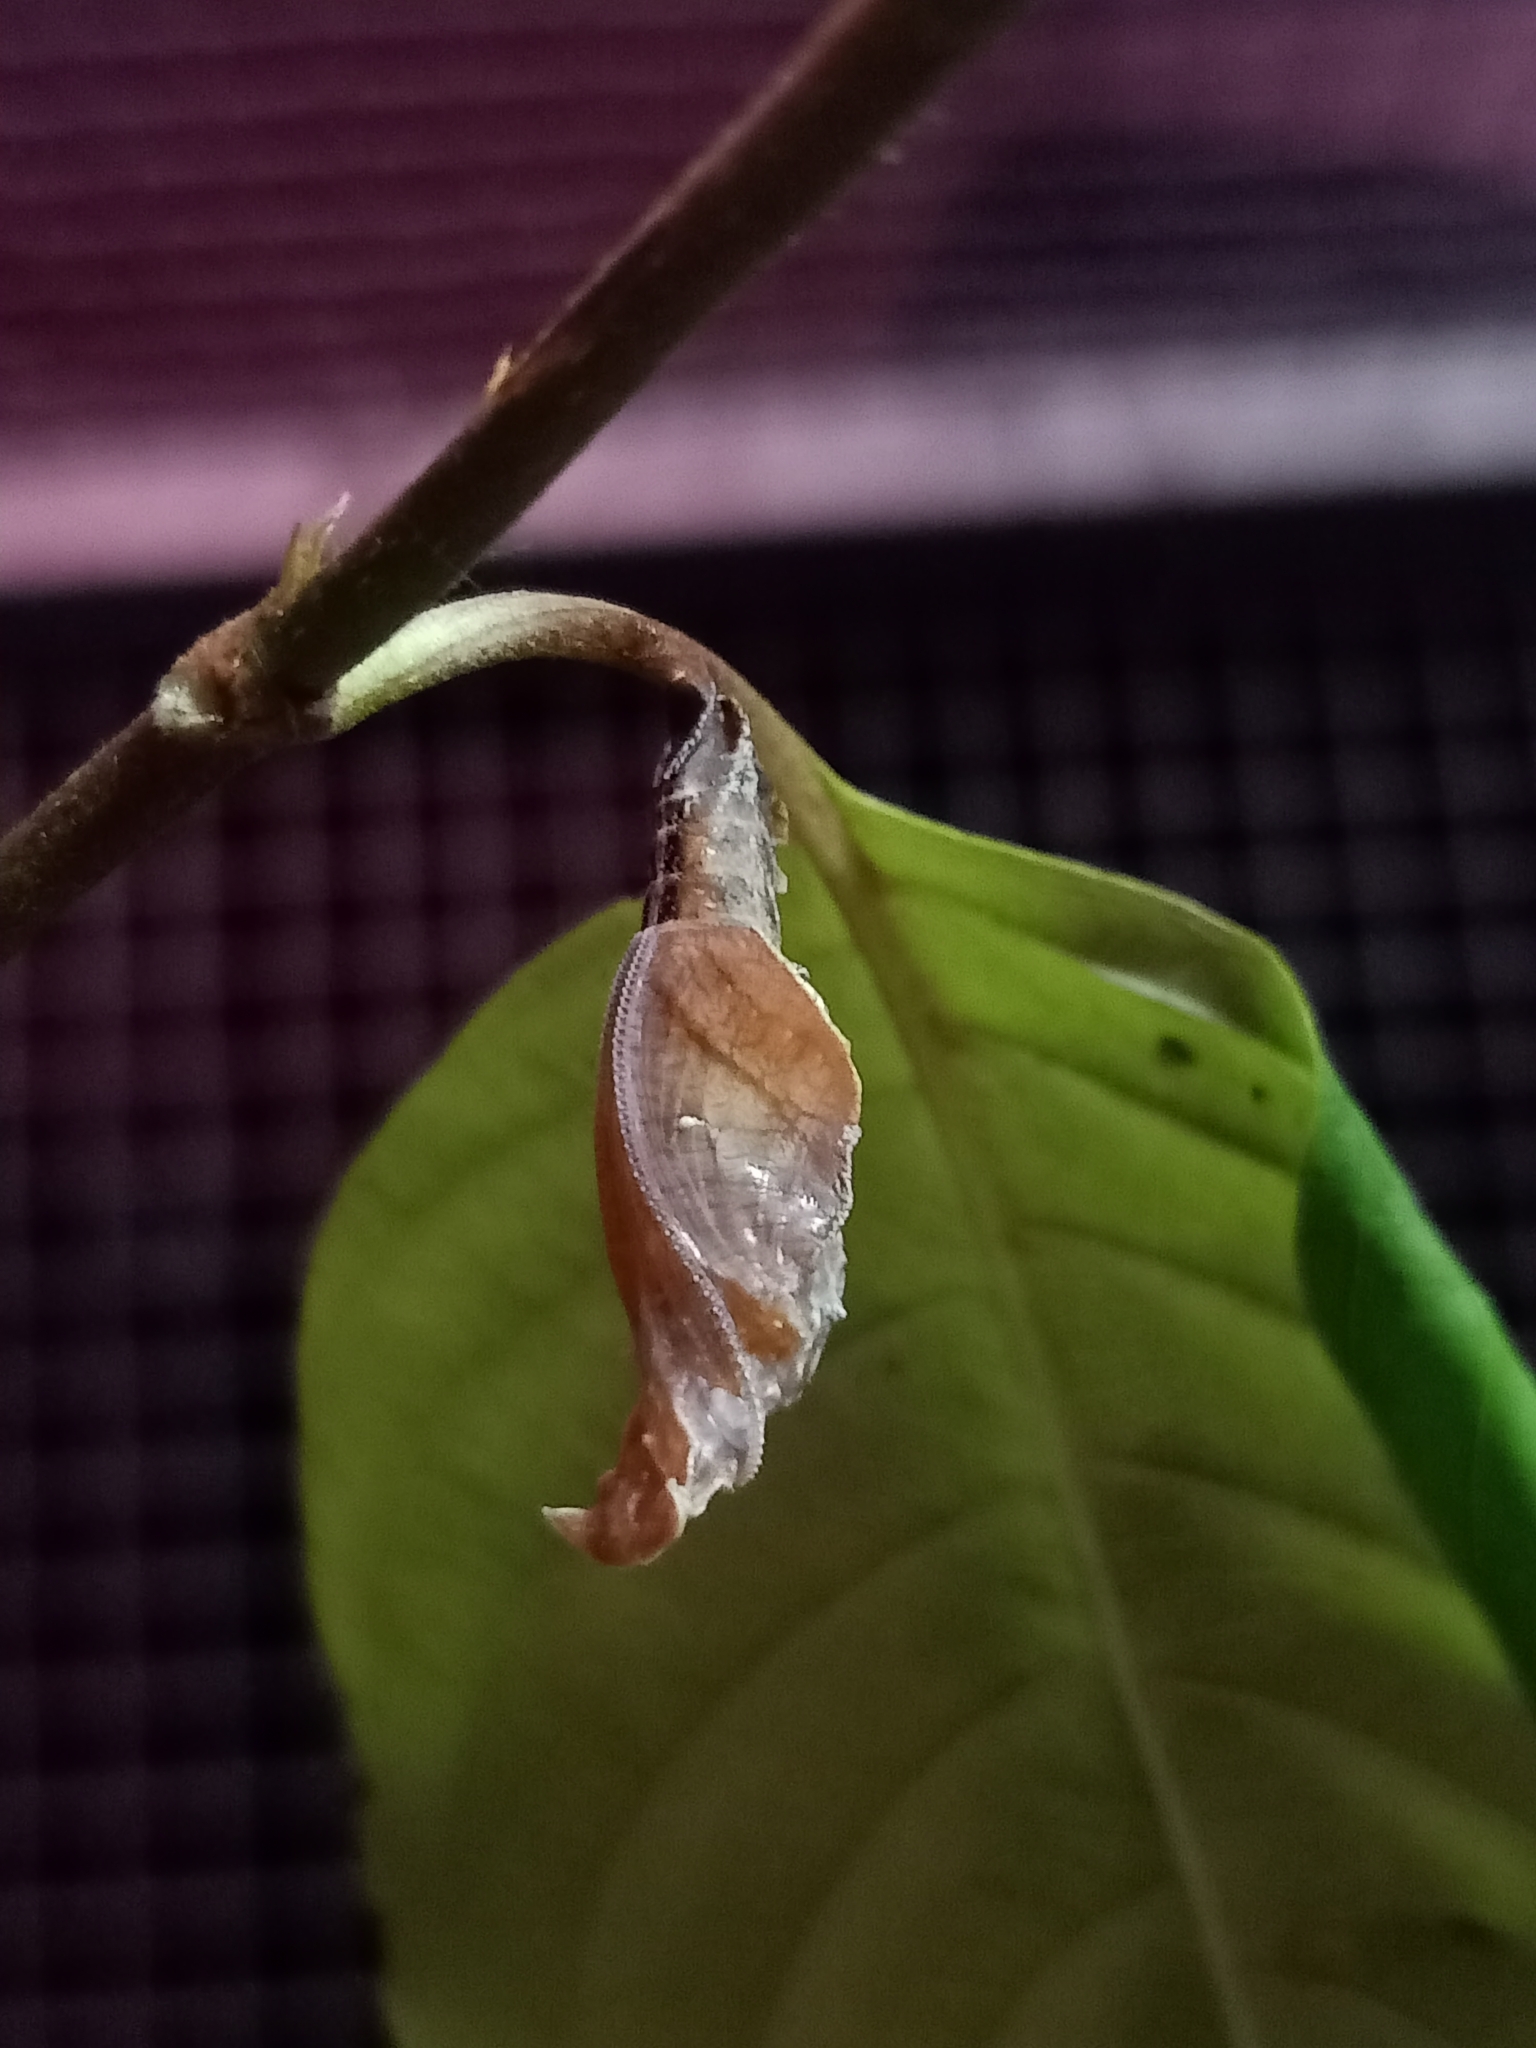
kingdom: Animalia
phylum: Arthropoda
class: Insecta
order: Lepidoptera
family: Nymphalidae
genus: Limenitis
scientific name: Limenitis Moduza procris
